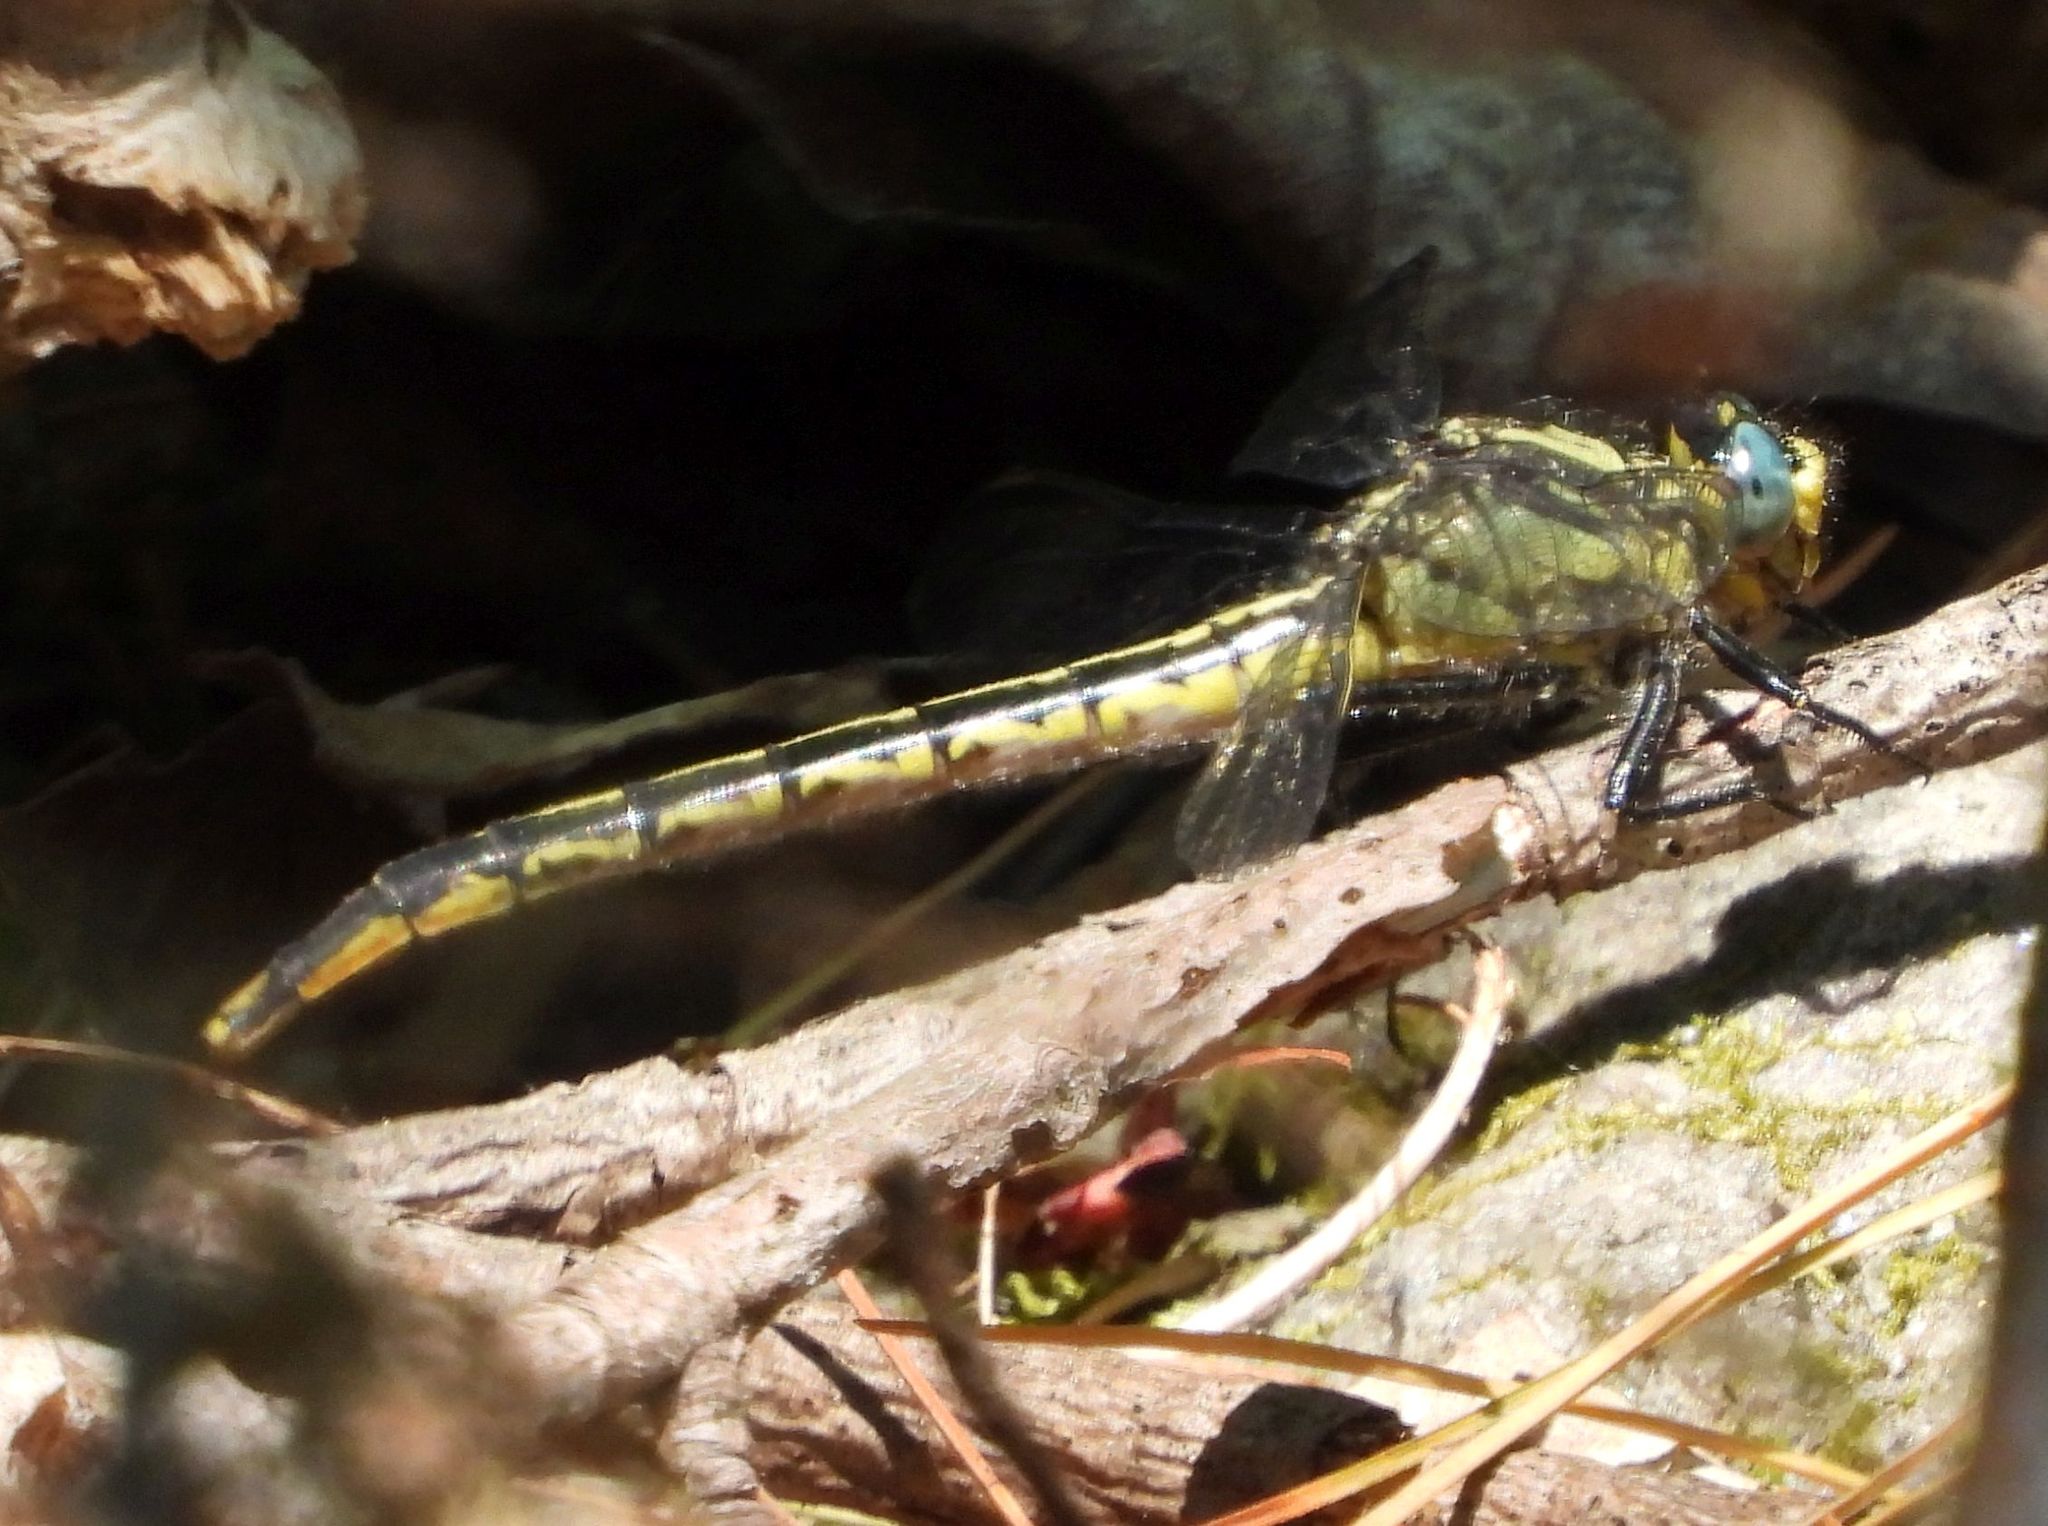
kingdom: Animalia
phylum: Arthropoda
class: Insecta
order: Odonata
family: Gomphidae
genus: Arigomphus
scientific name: Arigomphus furcifer
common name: Lilypad clubtail
